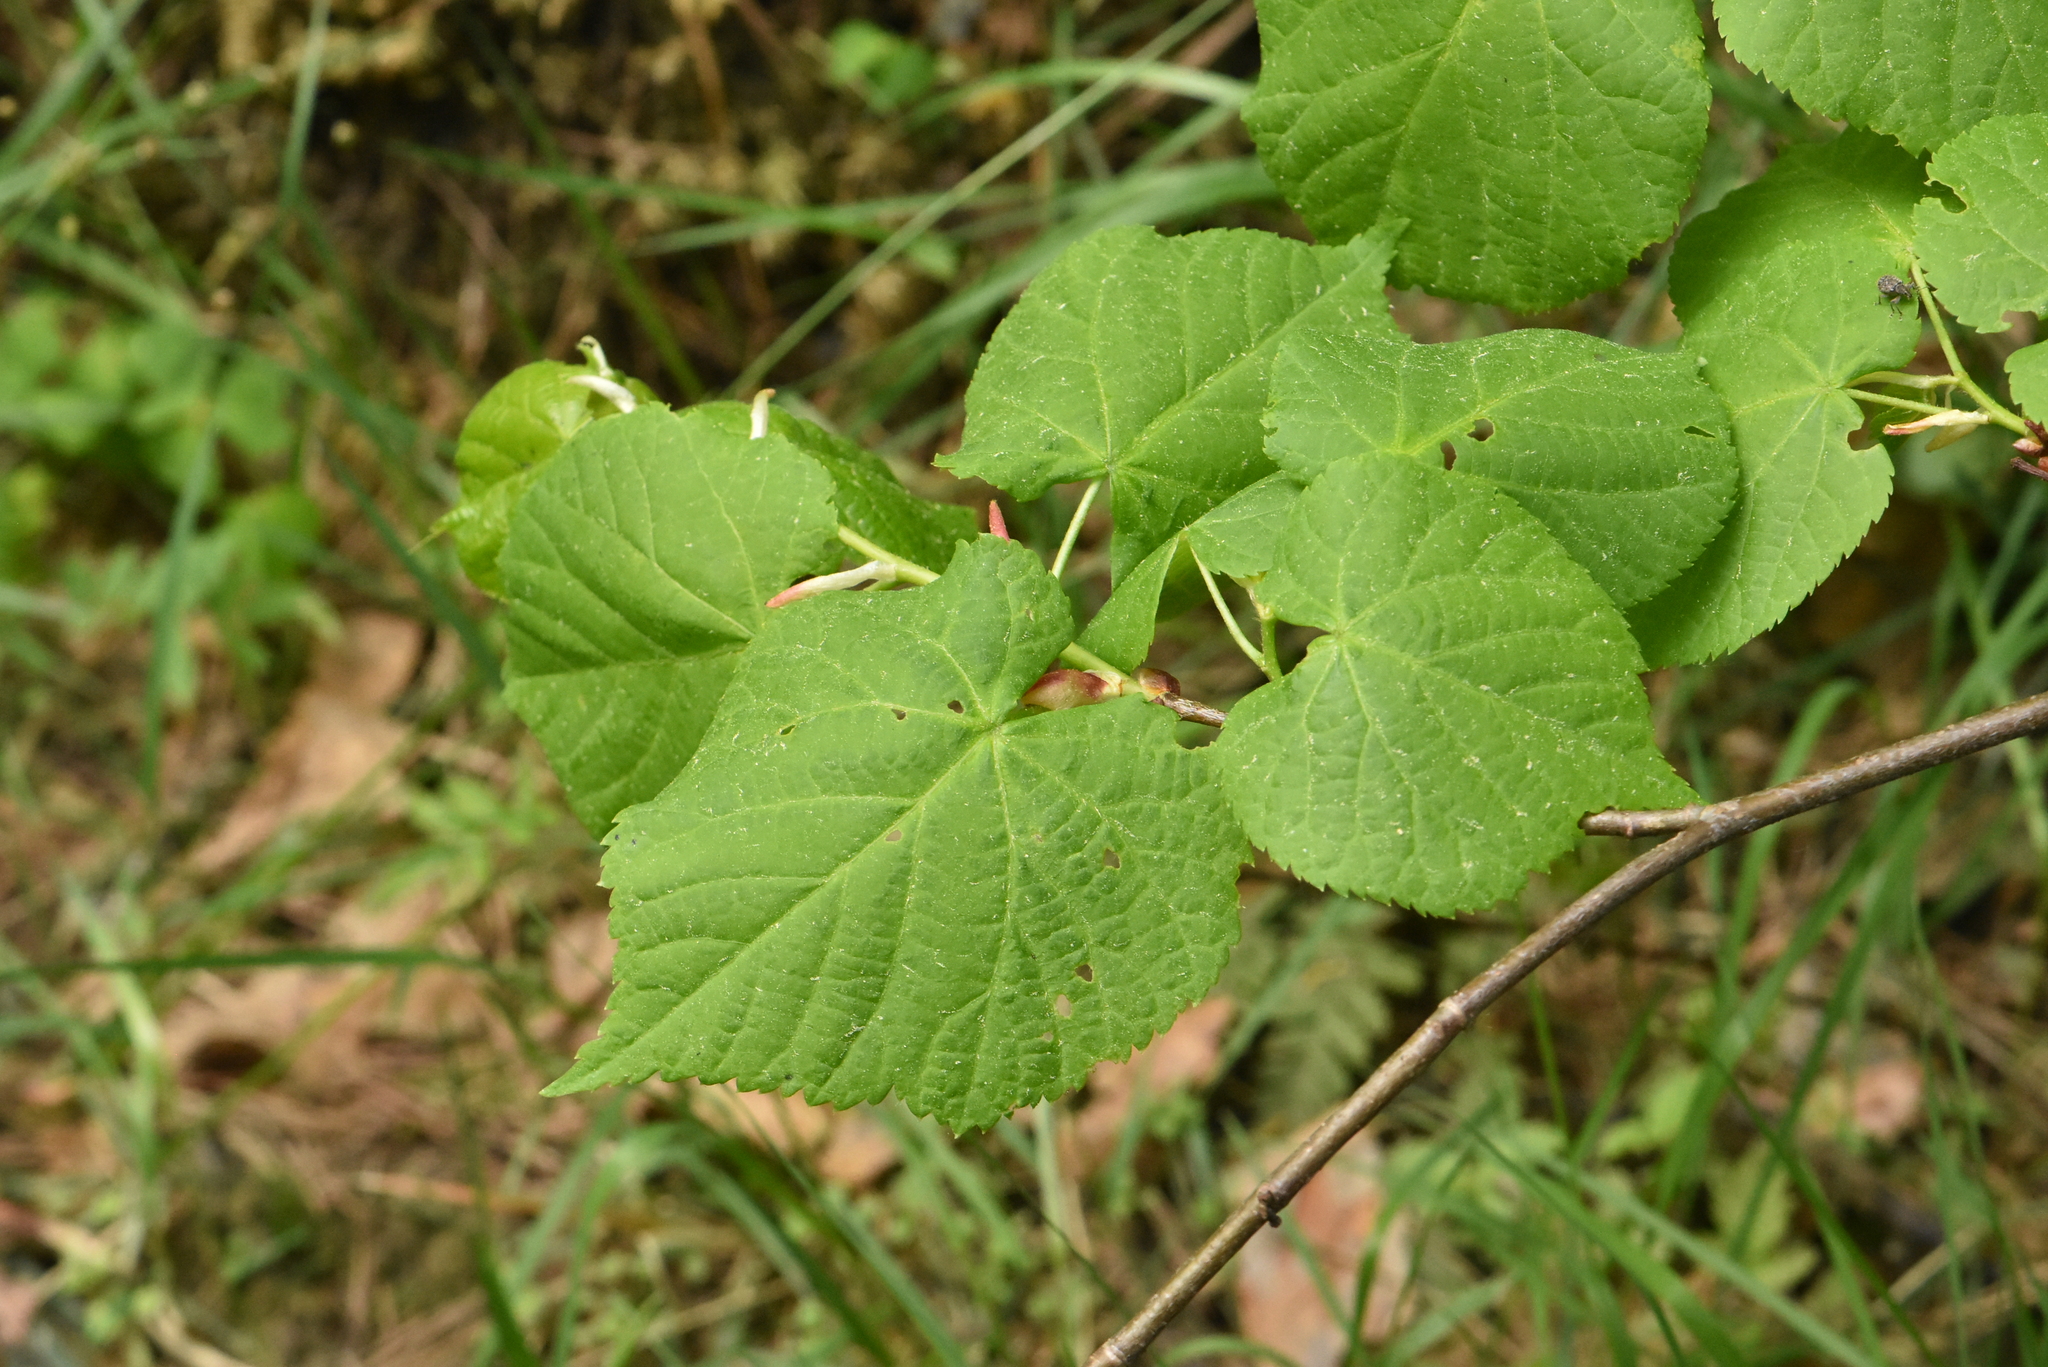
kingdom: Plantae
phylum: Tracheophyta
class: Magnoliopsida
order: Malvales
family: Malvaceae
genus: Tilia
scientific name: Tilia cordata
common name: Small-leaved lime
